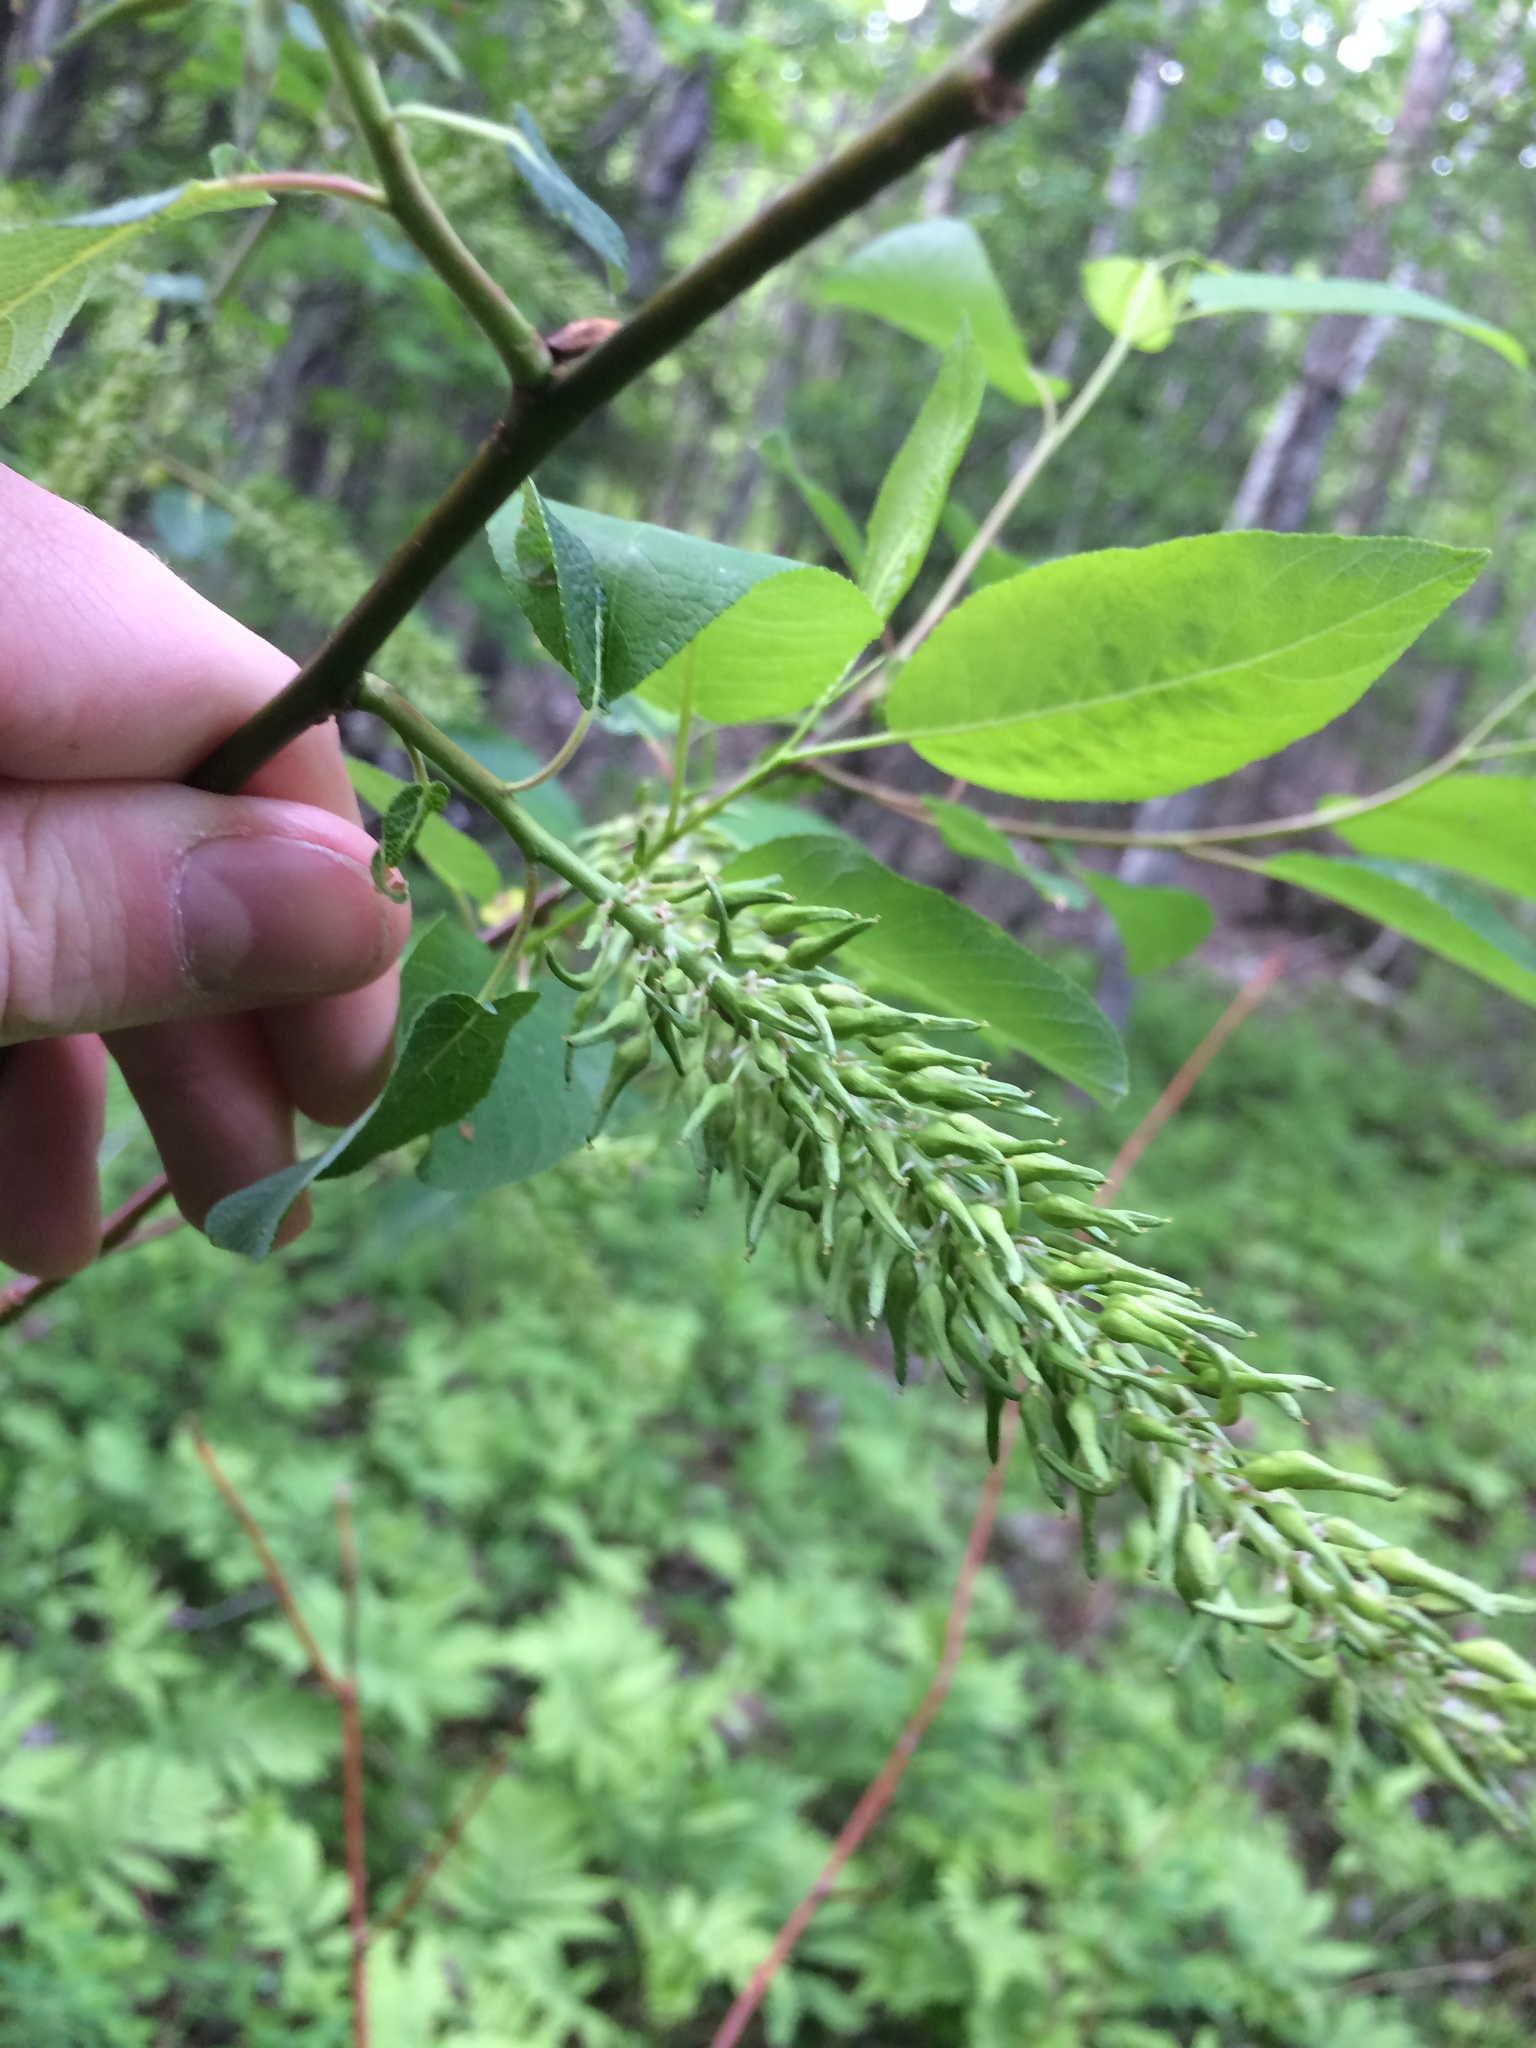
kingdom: Plantae
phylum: Tracheophyta
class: Magnoliopsida
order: Malpighiales
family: Salicaceae
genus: Salix
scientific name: Salix pyrifolia
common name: Balsam willow
